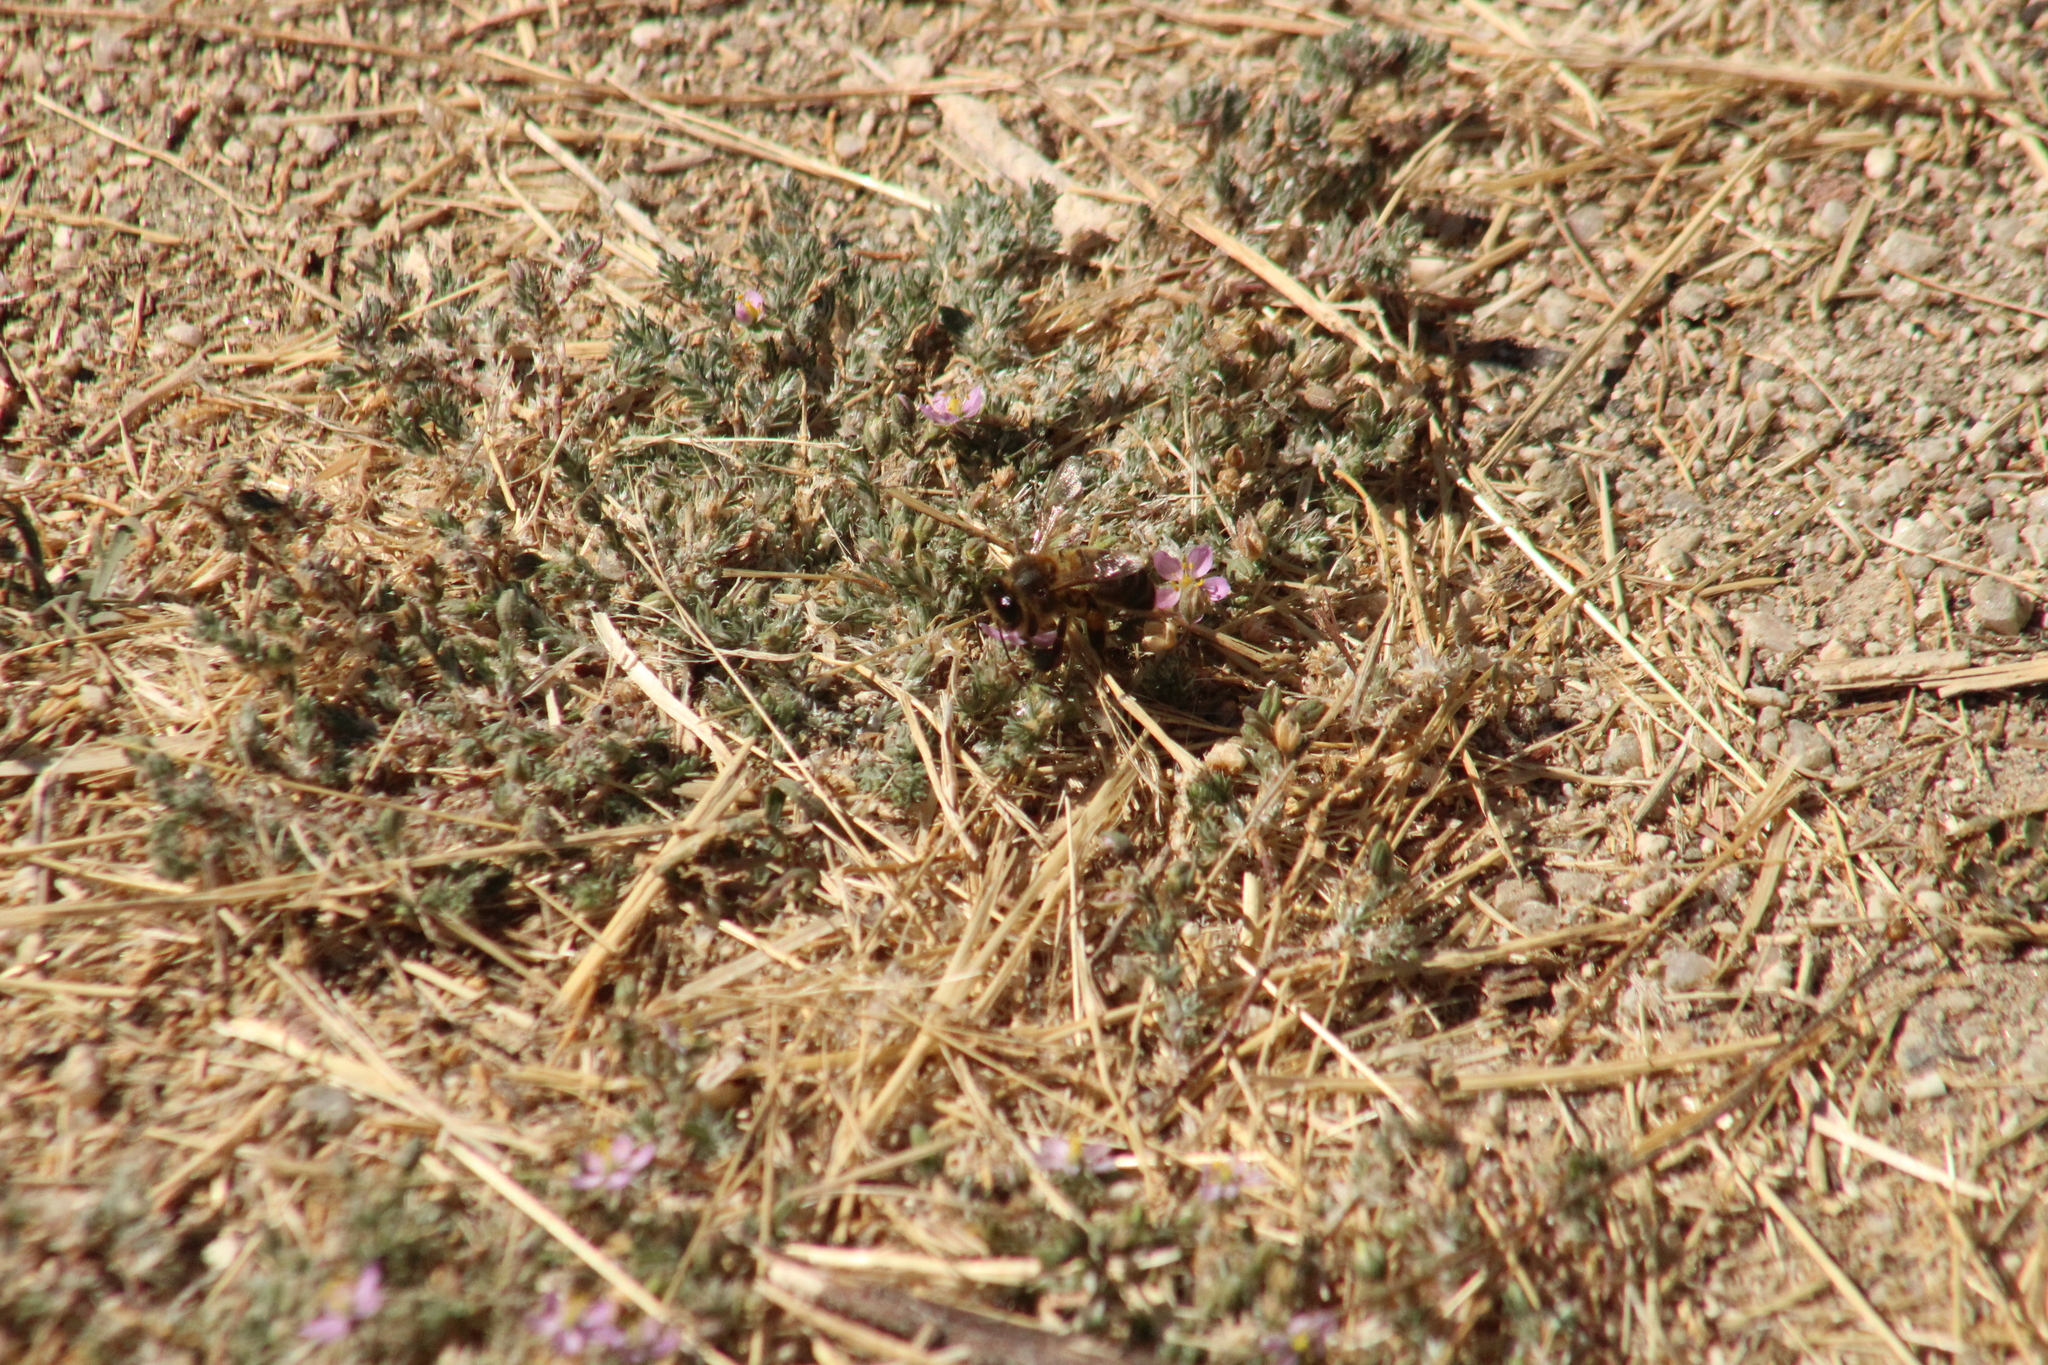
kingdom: Animalia
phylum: Arthropoda
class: Insecta
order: Hymenoptera
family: Apidae
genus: Apis
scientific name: Apis mellifera
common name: Honey bee
